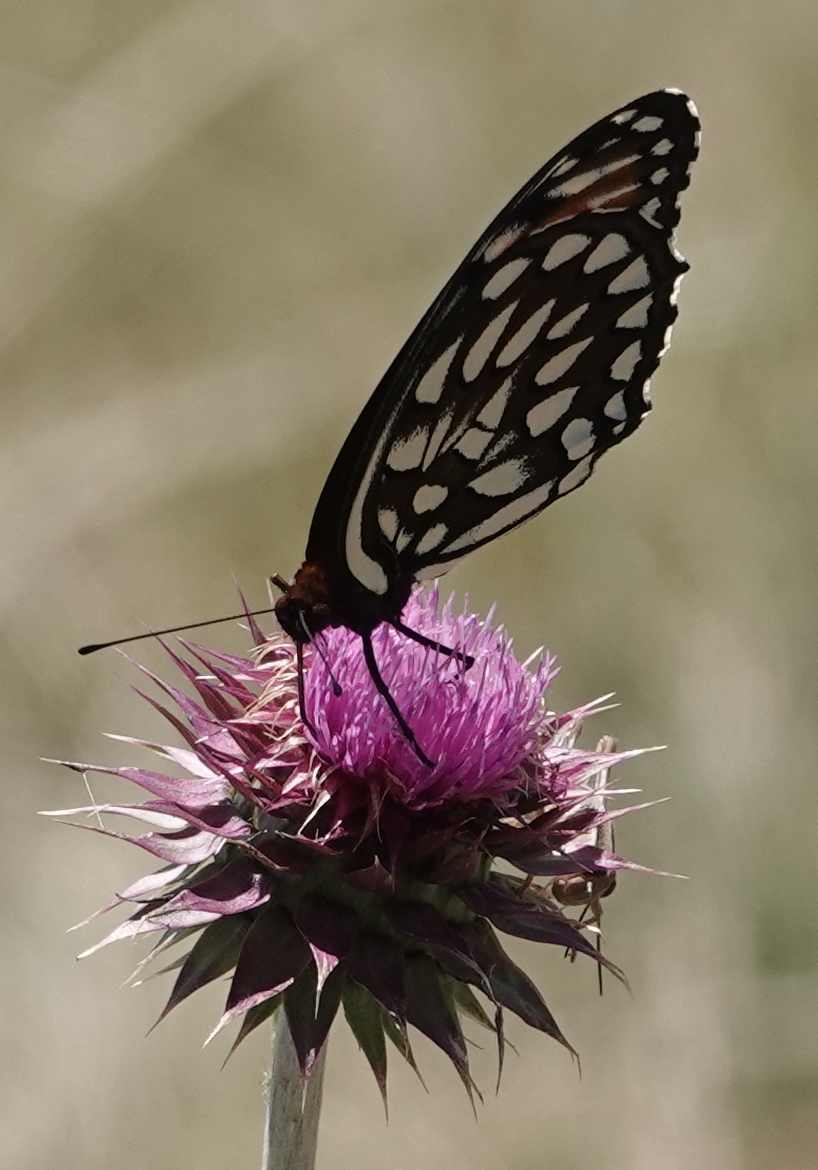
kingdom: Animalia
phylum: Arthropoda
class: Insecta
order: Lepidoptera
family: Nymphalidae
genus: Speyeria
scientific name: Speyeria idalia
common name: Regal fritillary
